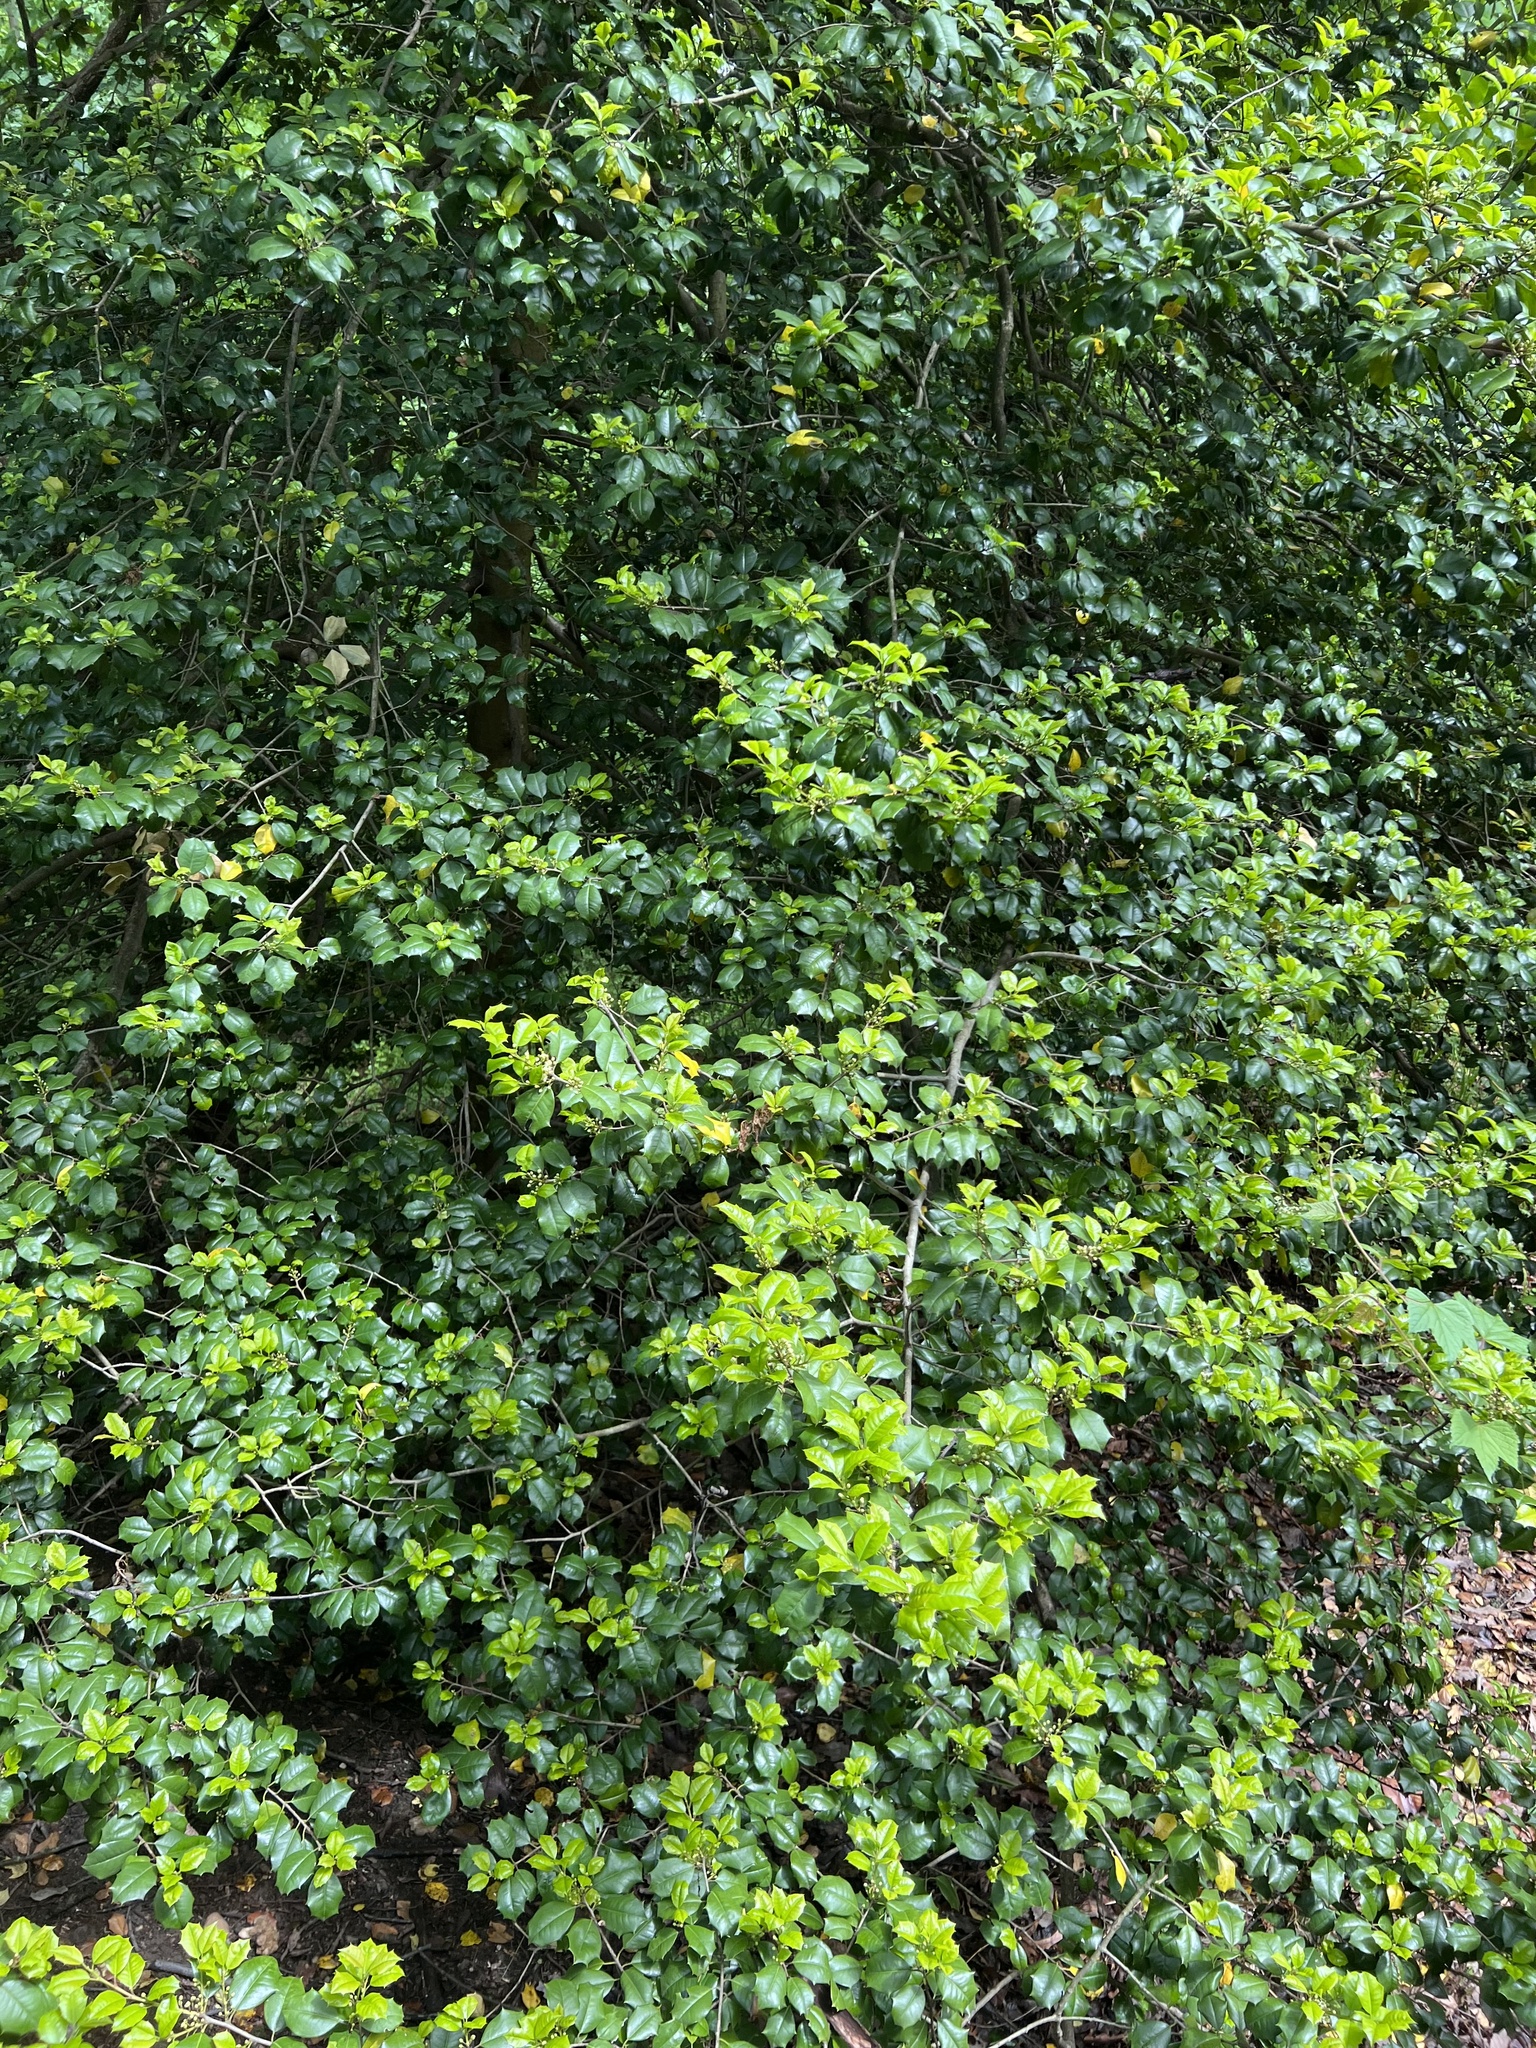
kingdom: Plantae
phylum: Tracheophyta
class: Magnoliopsida
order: Aquifoliales
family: Aquifoliaceae
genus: Ilex
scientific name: Ilex opaca
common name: American holly
